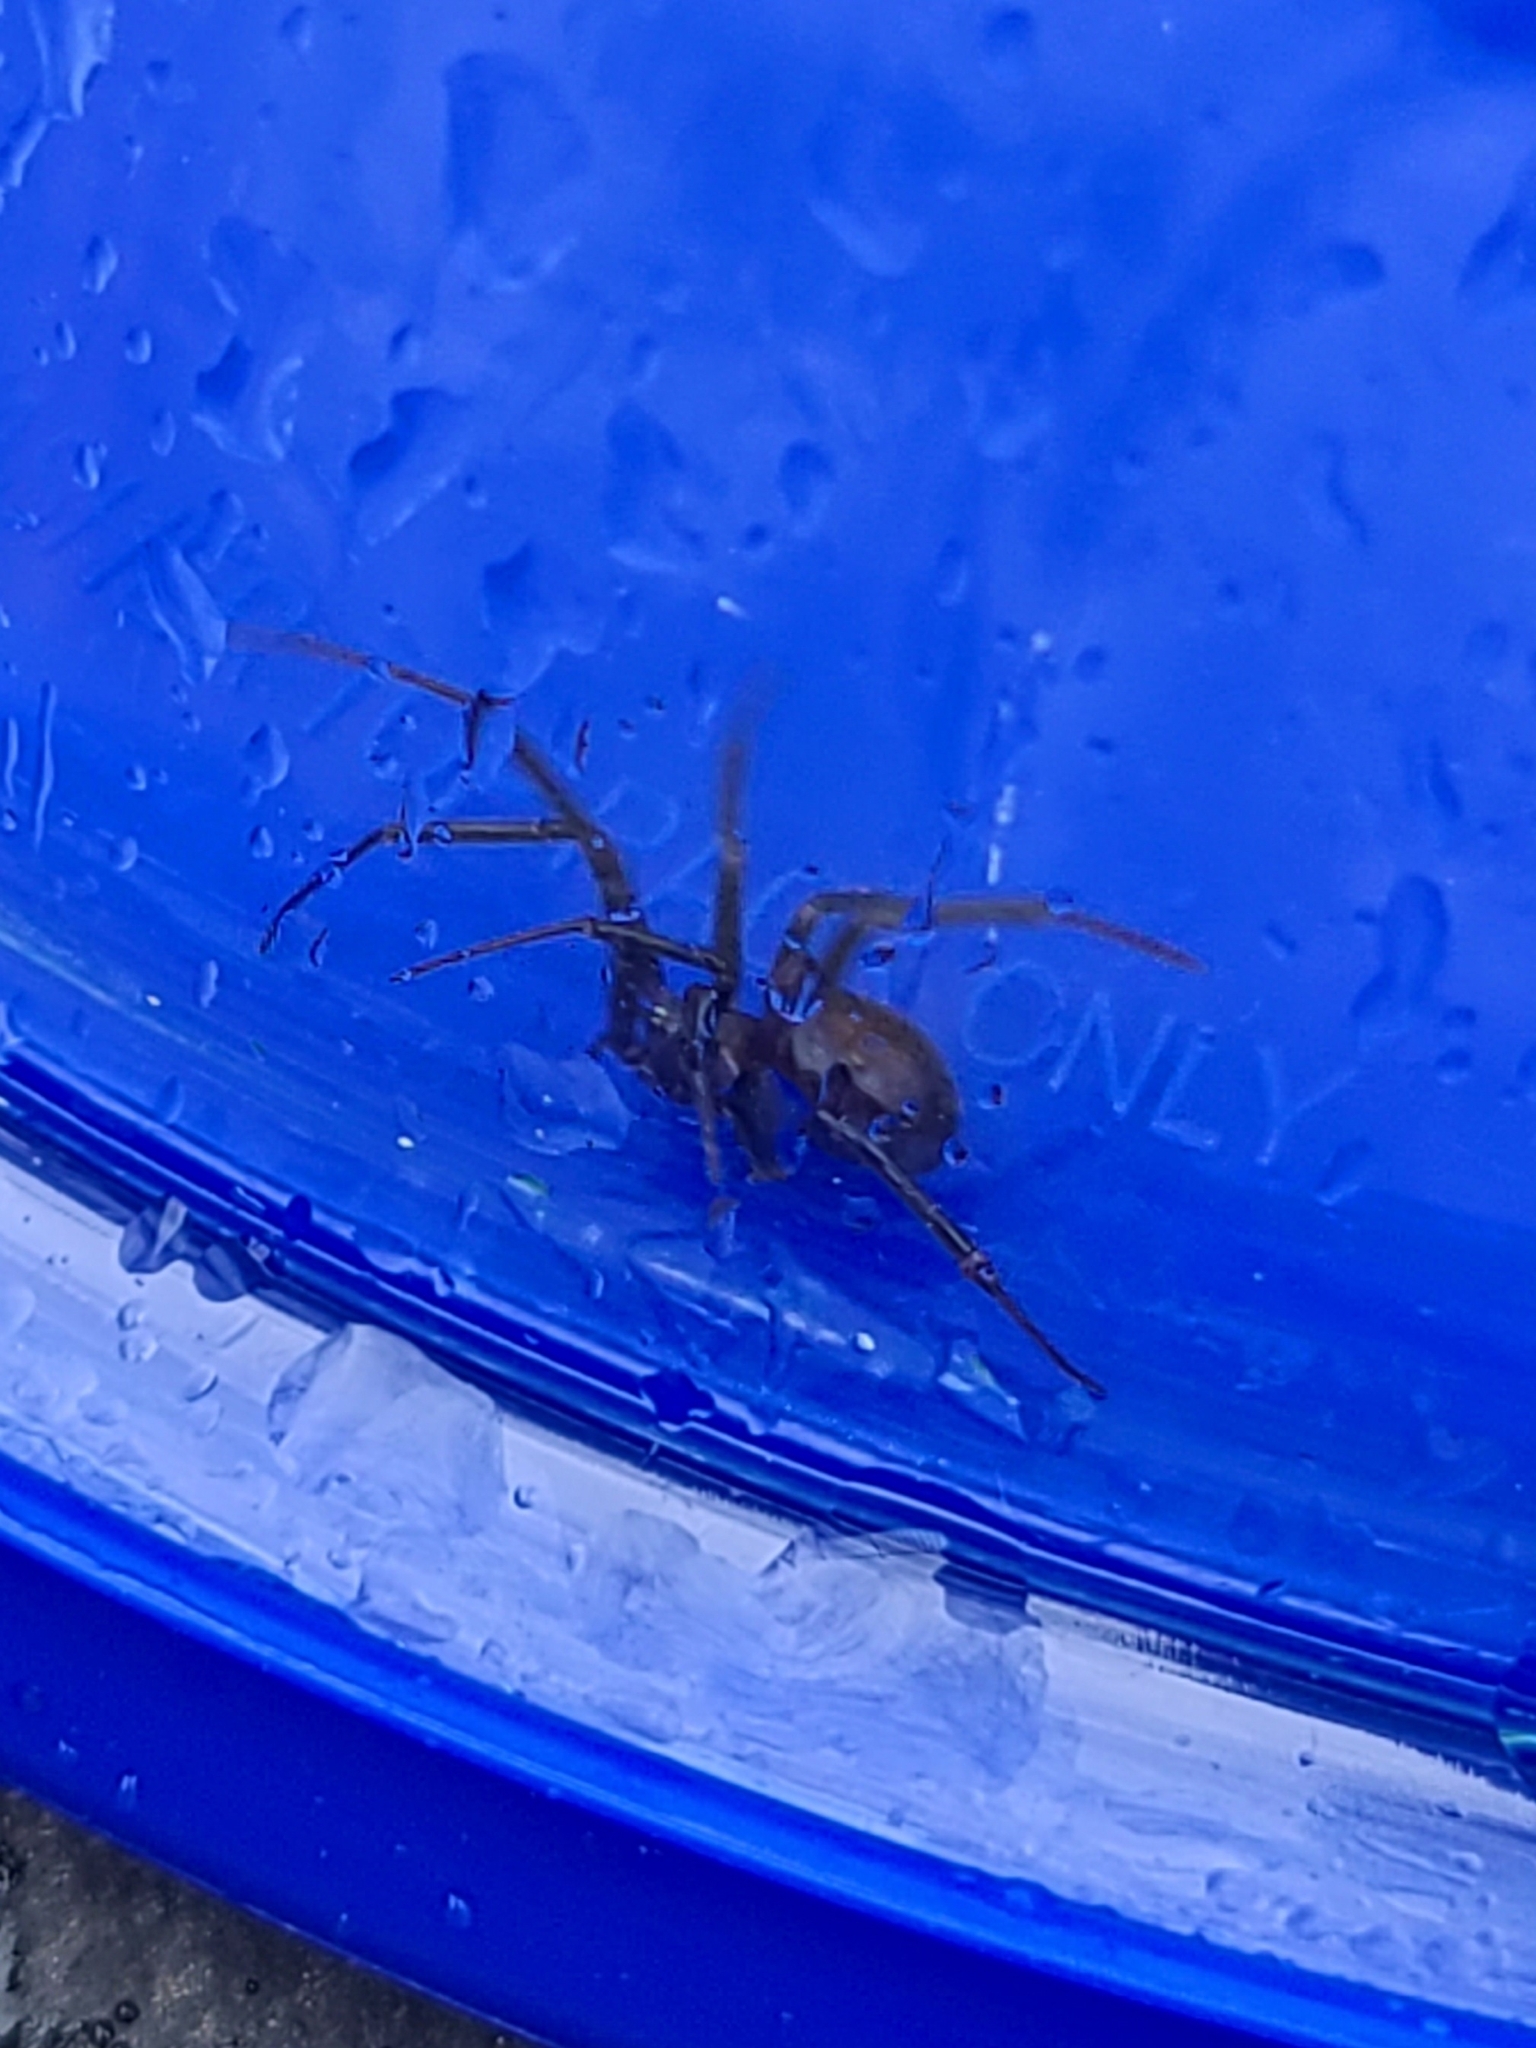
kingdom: Animalia
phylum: Arthropoda
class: Arachnida
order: Araneae
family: Theridiidae
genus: Steatoda
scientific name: Steatoda grossa
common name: False black widow
